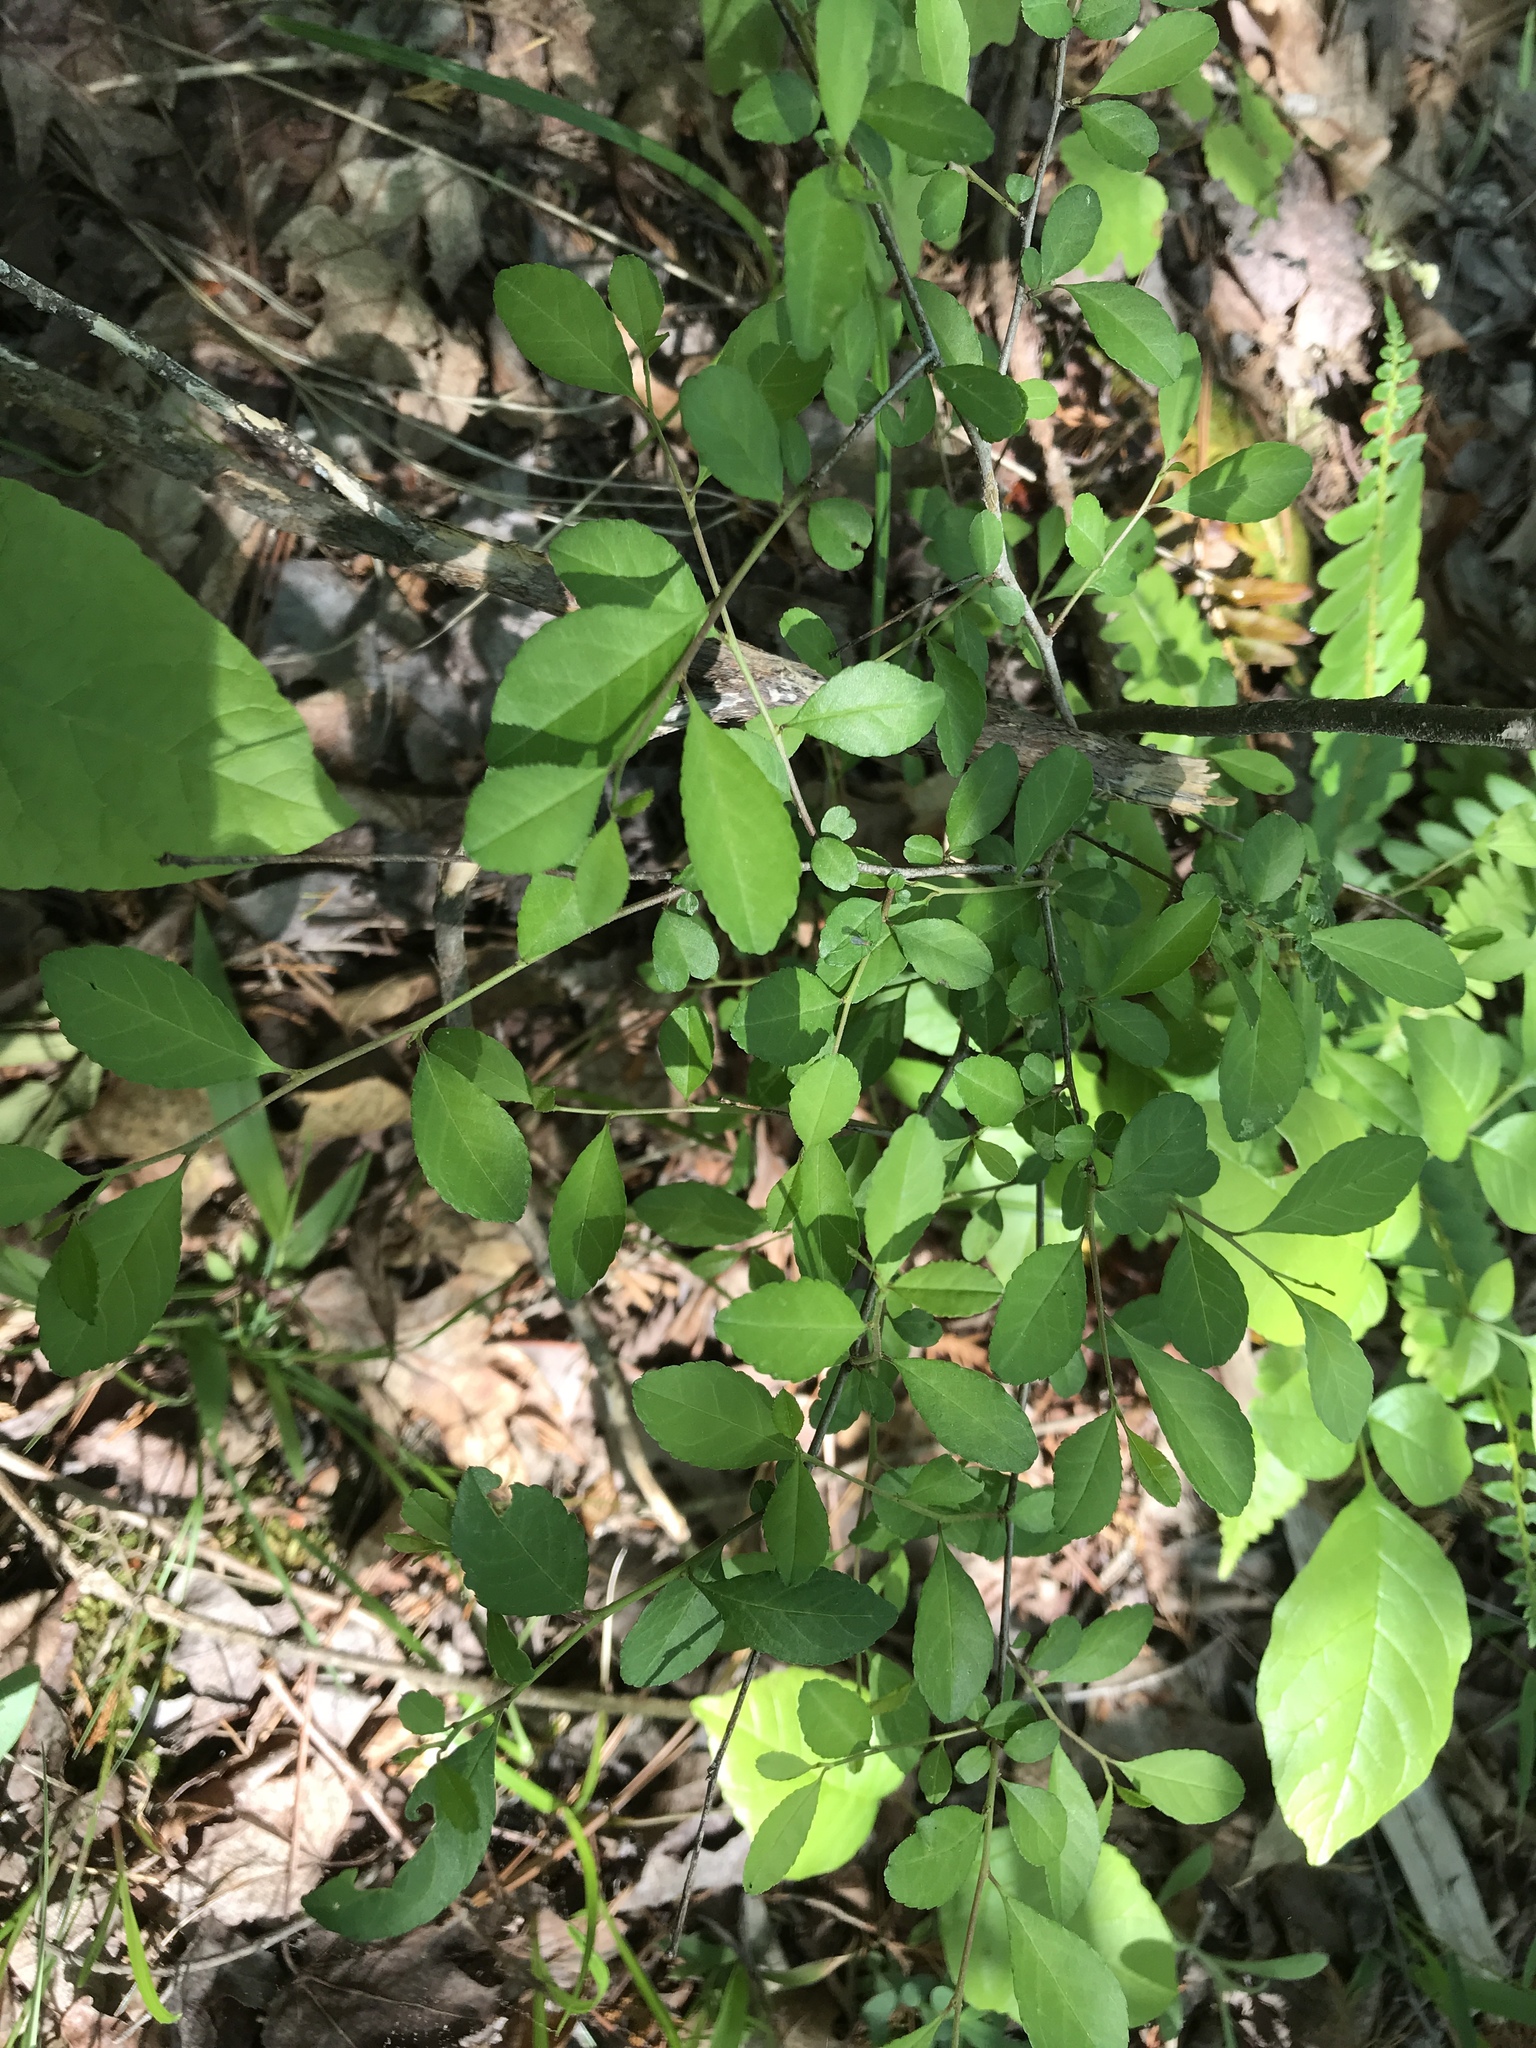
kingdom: Plantae
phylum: Tracheophyta
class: Magnoliopsida
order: Aquifoliales
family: Aquifoliaceae
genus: Ilex
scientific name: Ilex decidua
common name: Possum-haw
